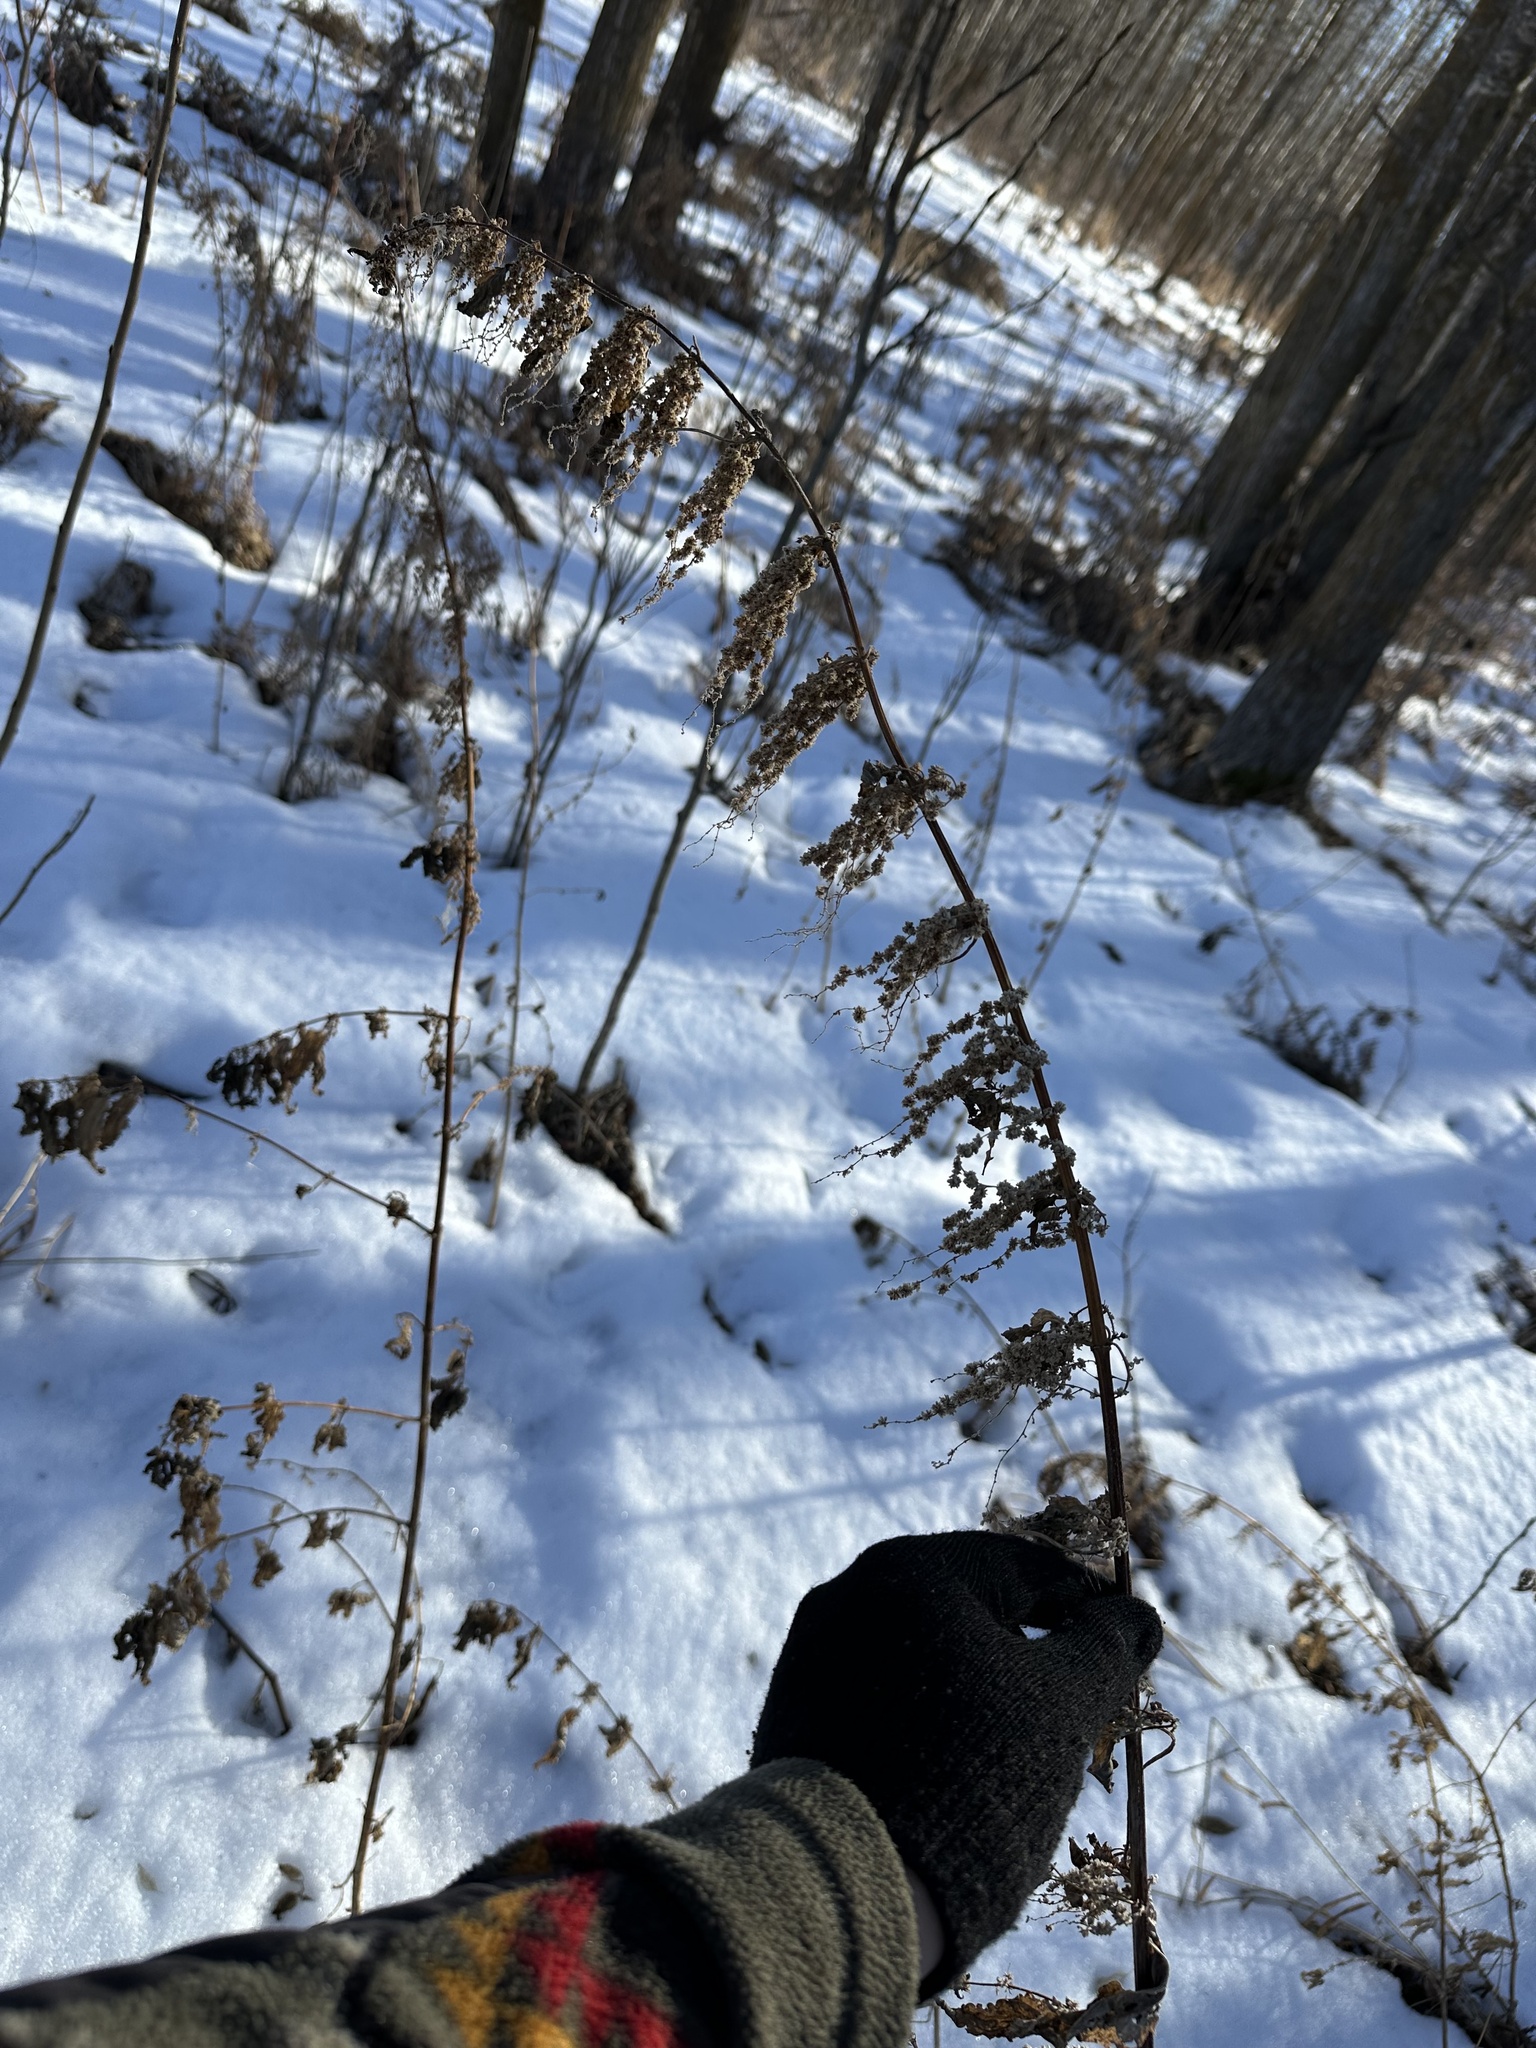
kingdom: Plantae
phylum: Tracheophyta
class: Magnoliopsida
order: Rosales
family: Urticaceae
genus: Urtica
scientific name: Urtica gracilis
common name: Slender stinging nettle
